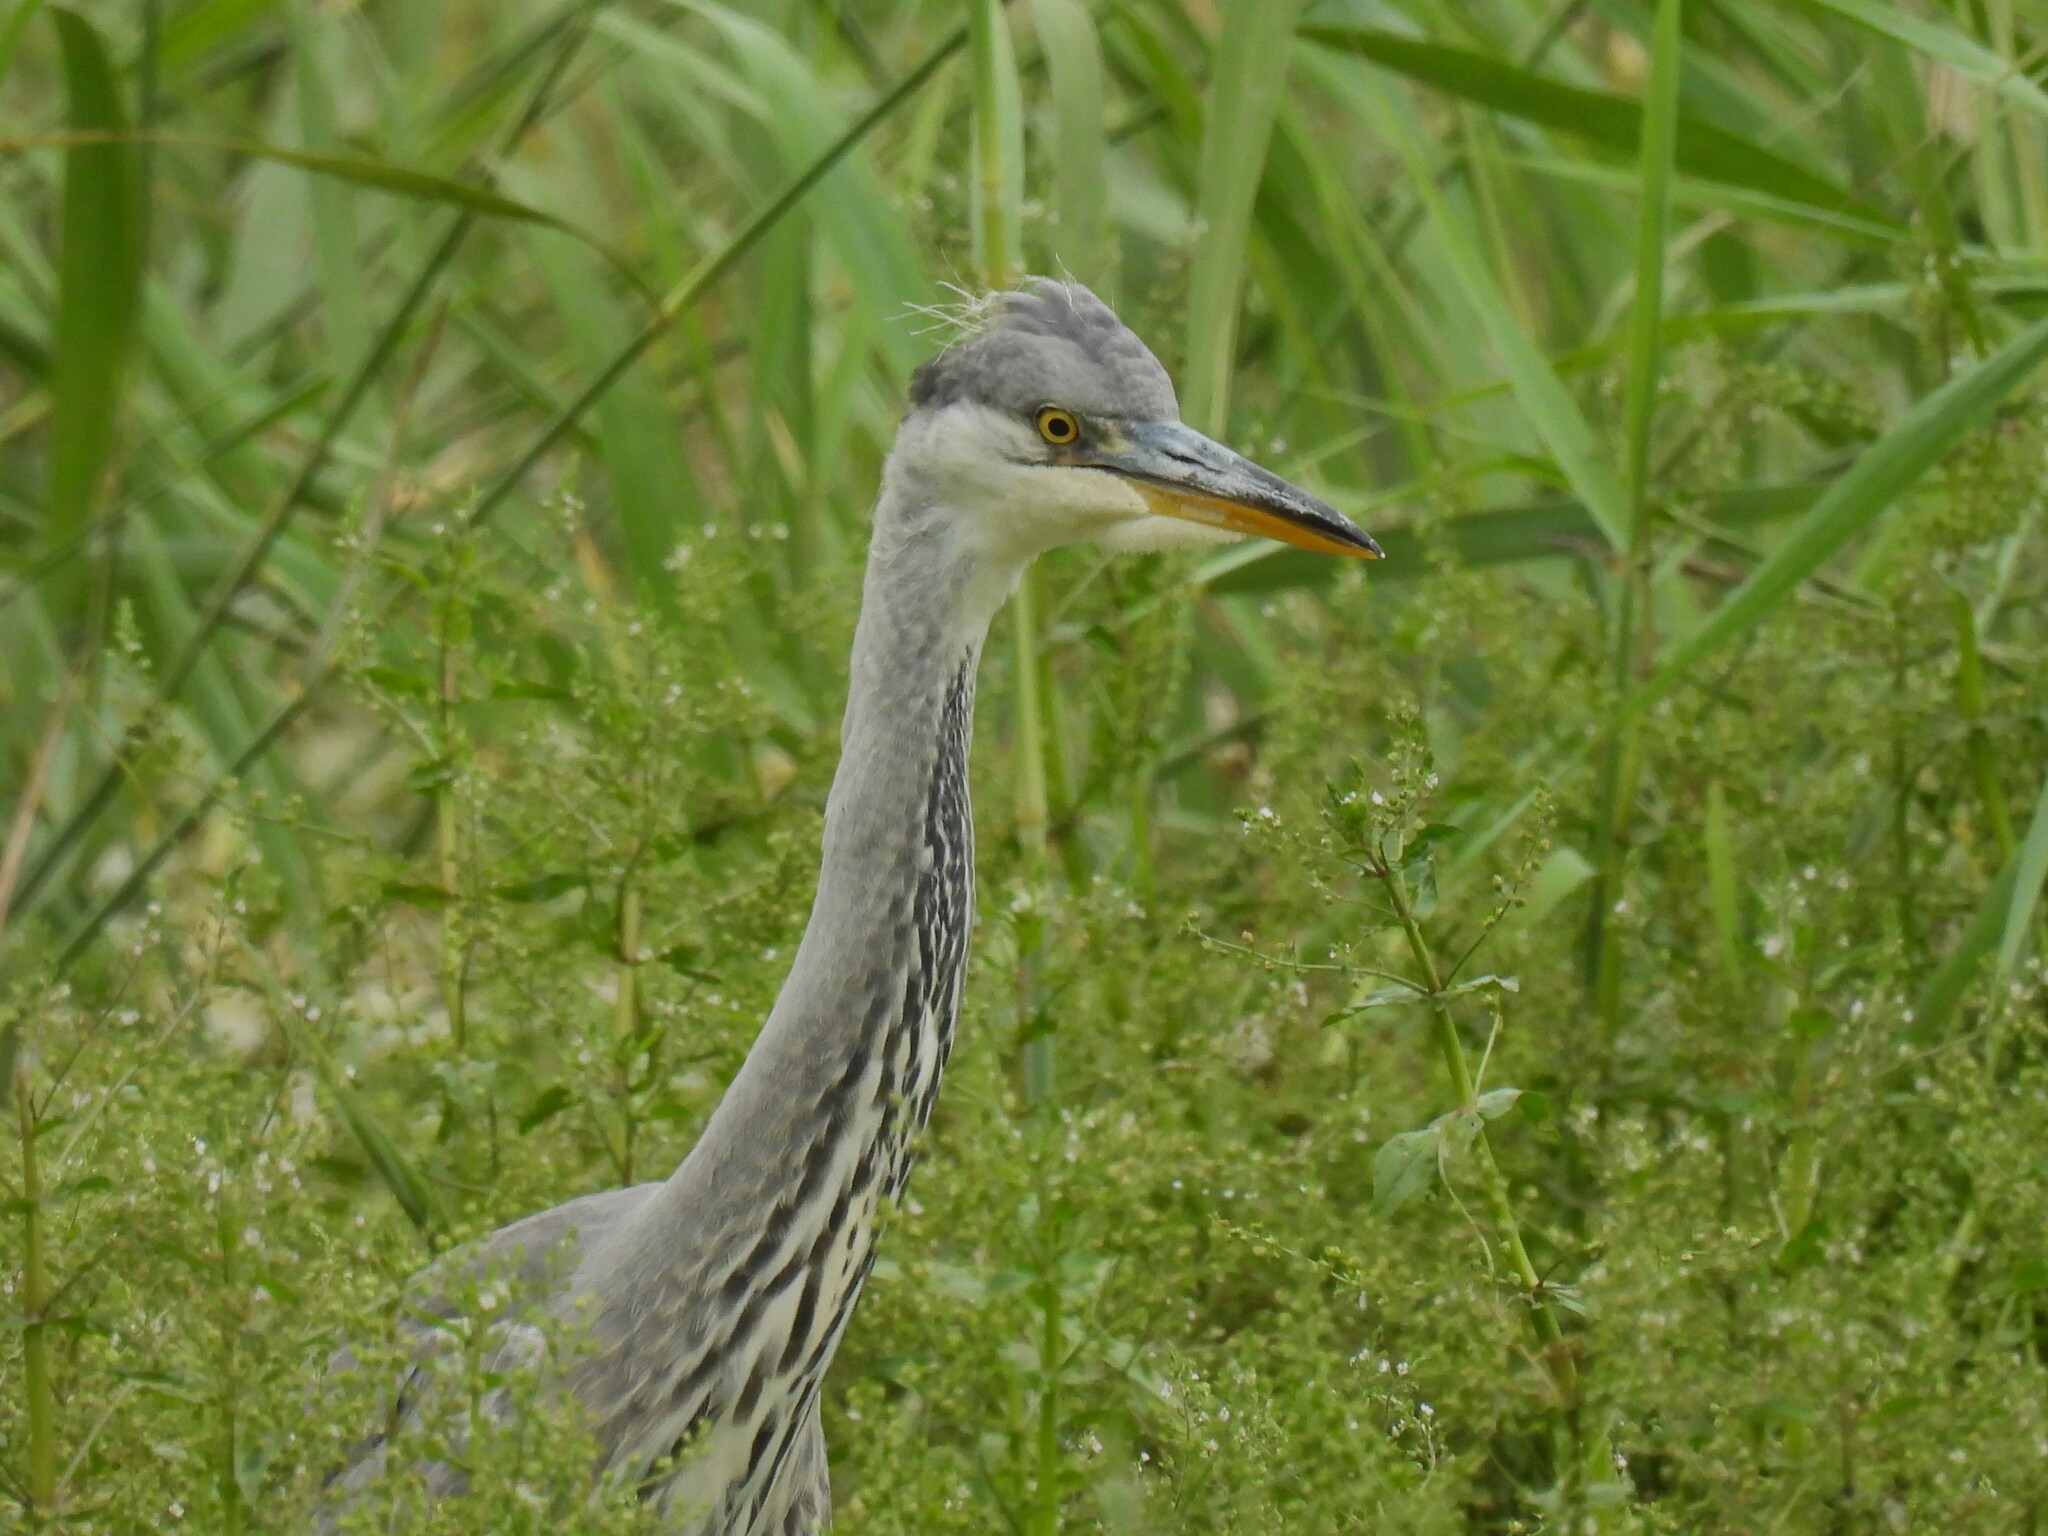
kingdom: Animalia
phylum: Chordata
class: Aves
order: Pelecaniformes
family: Ardeidae
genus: Ardea
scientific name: Ardea cinerea
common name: Grey heron
